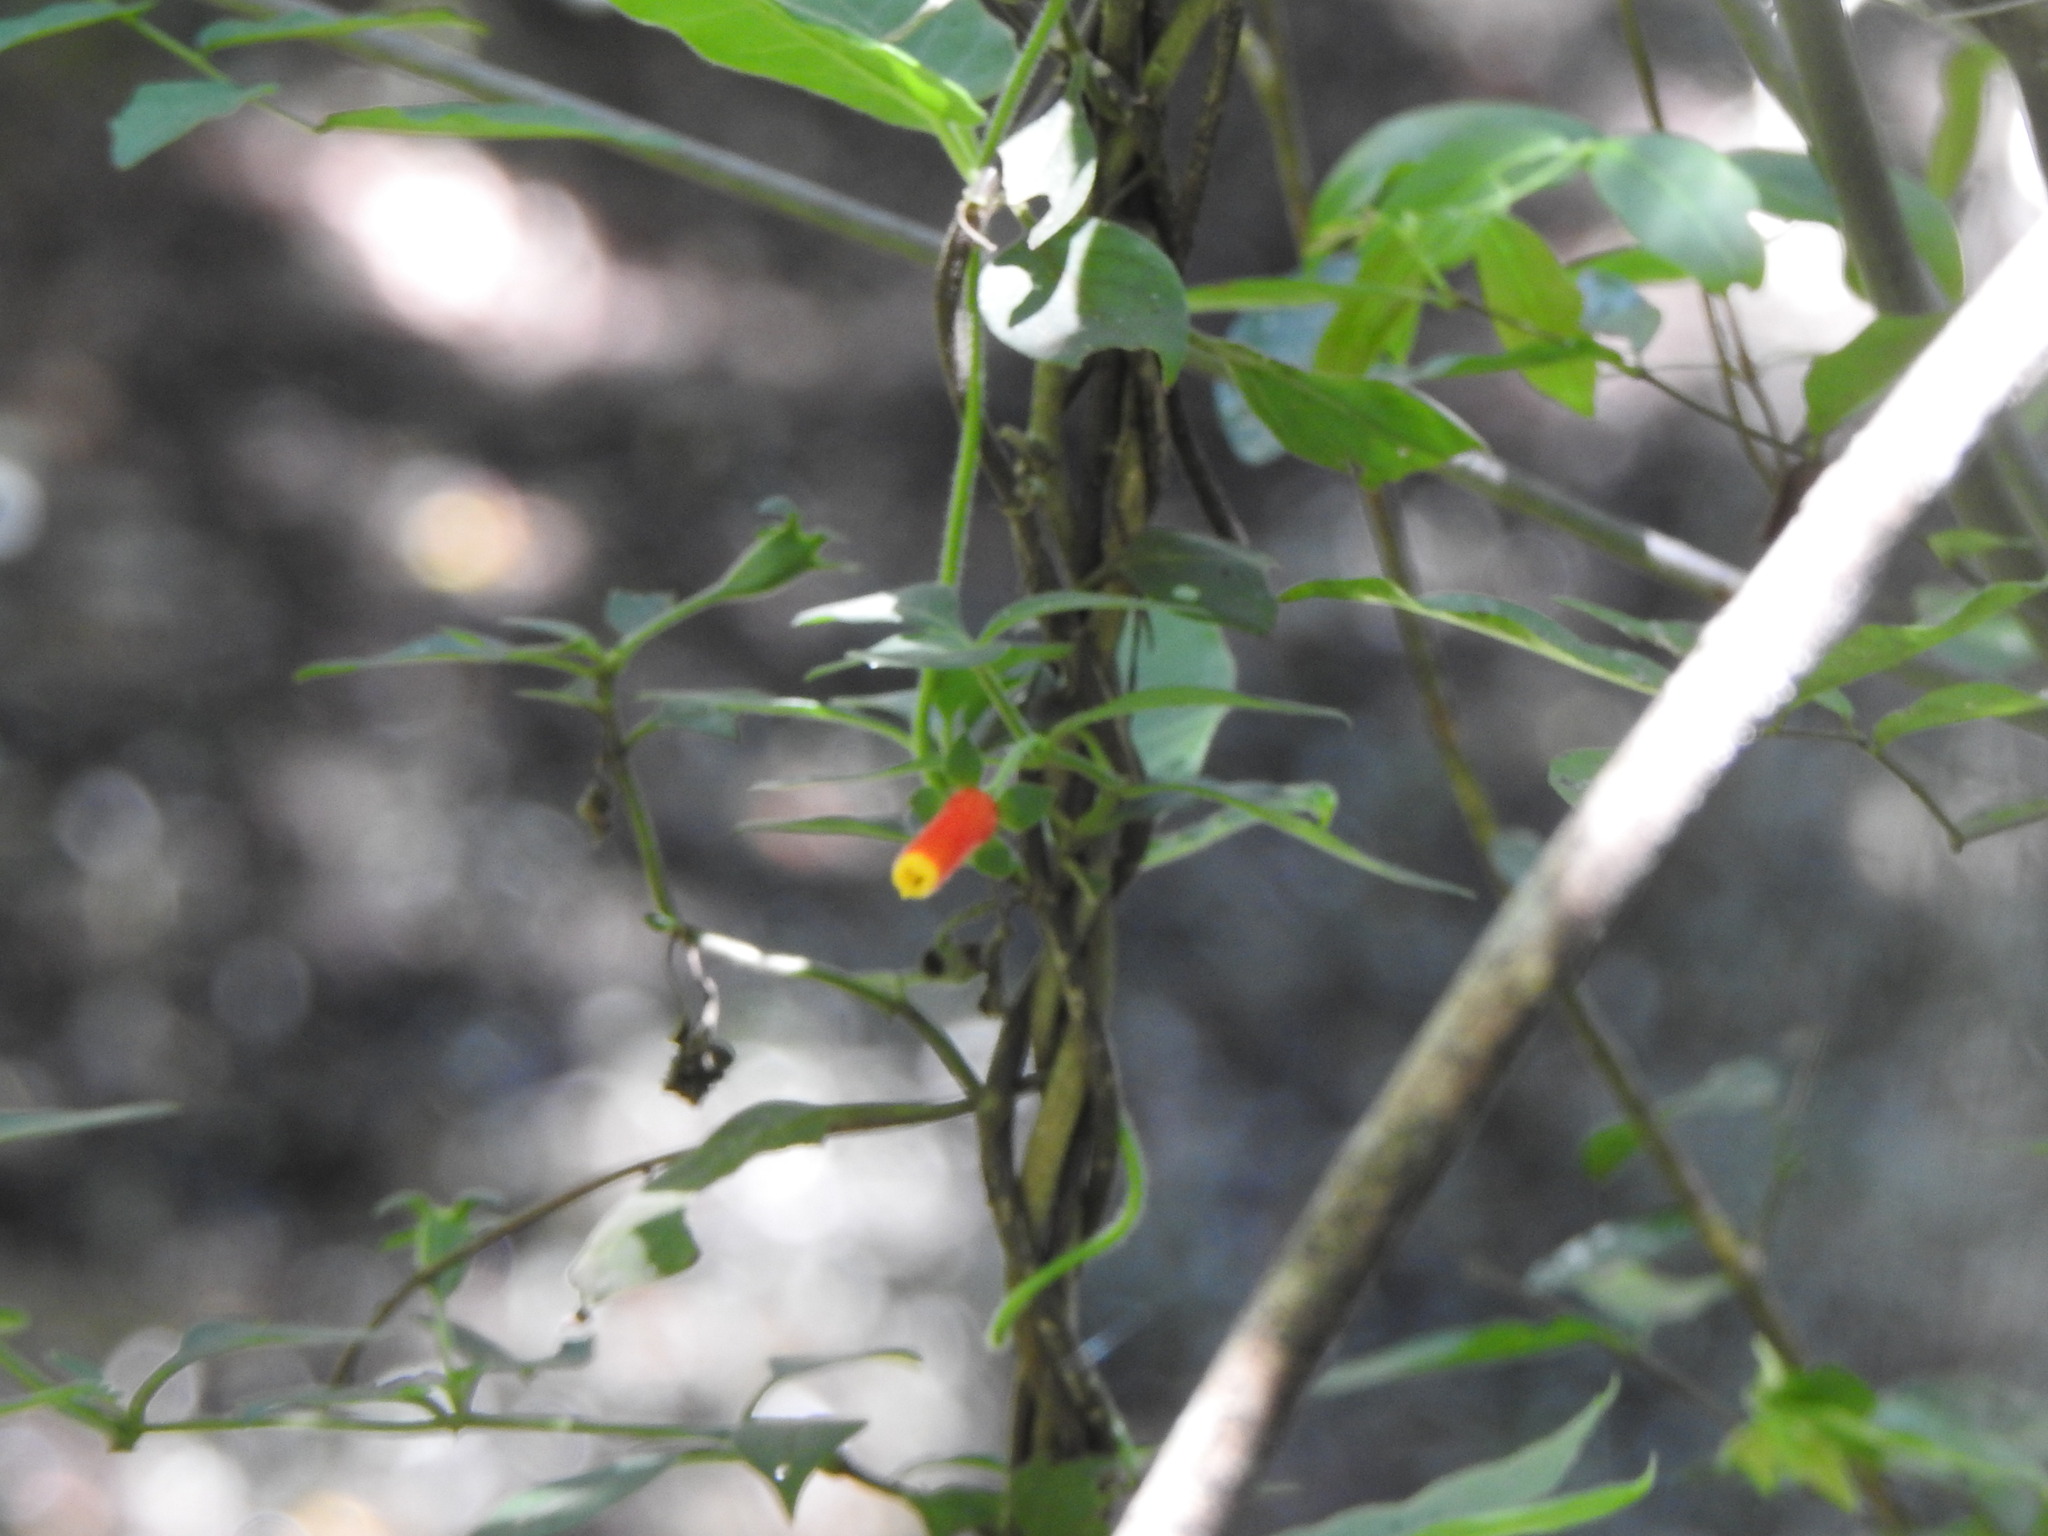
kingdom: Plantae
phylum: Tracheophyta
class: Magnoliopsida
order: Gentianales
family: Rubiaceae
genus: Manettia
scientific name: Manettia luteorubra
